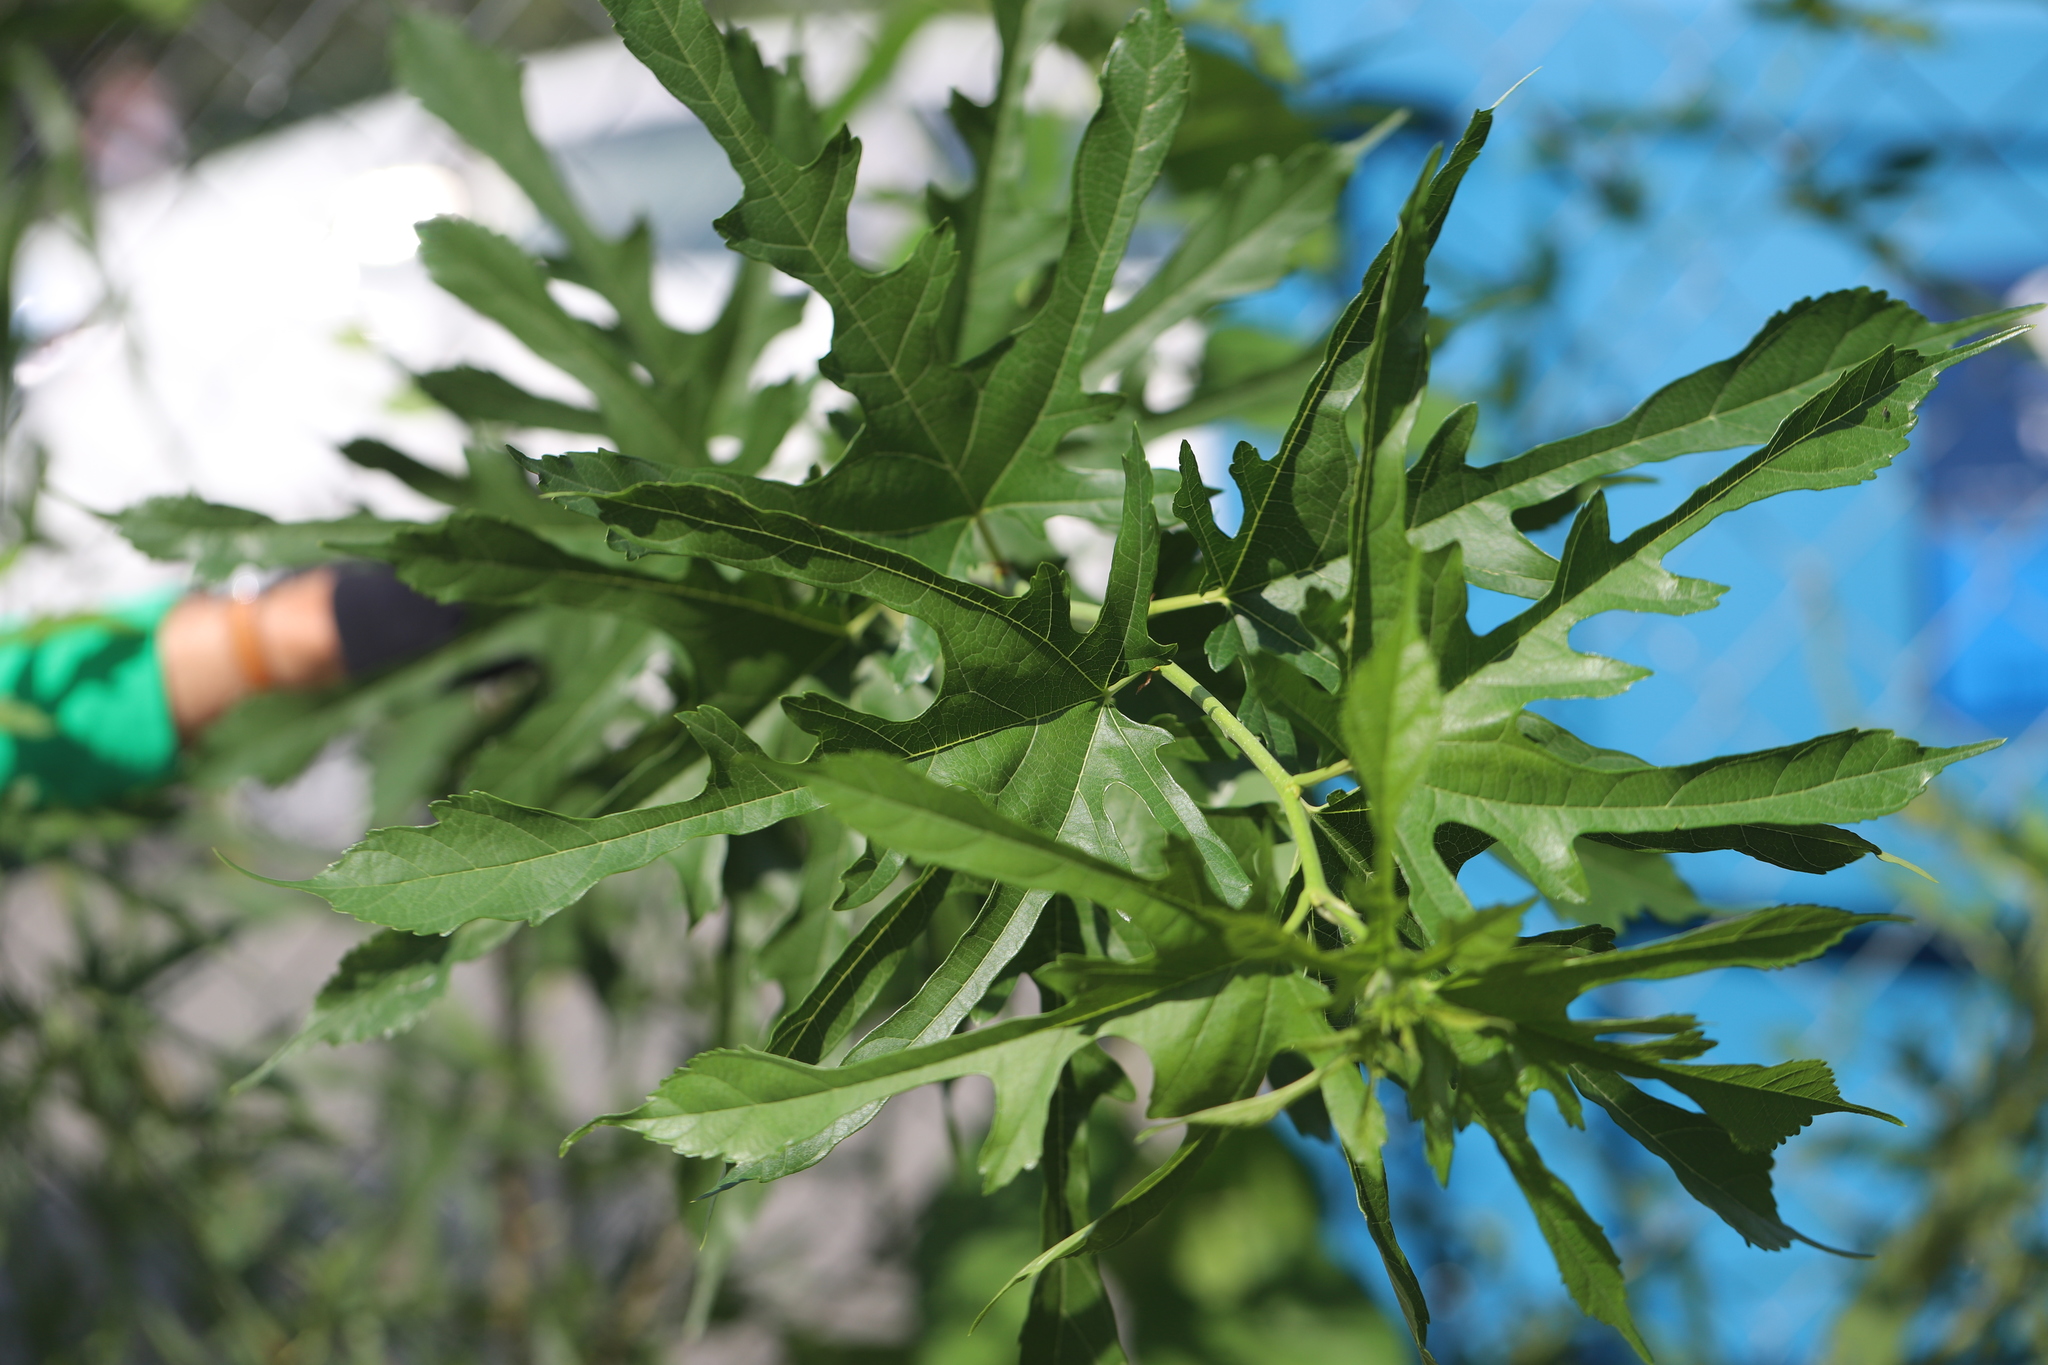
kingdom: Plantae
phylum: Tracheophyta
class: Magnoliopsida
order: Rosales
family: Moraceae
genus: Morus
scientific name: Morus indica
